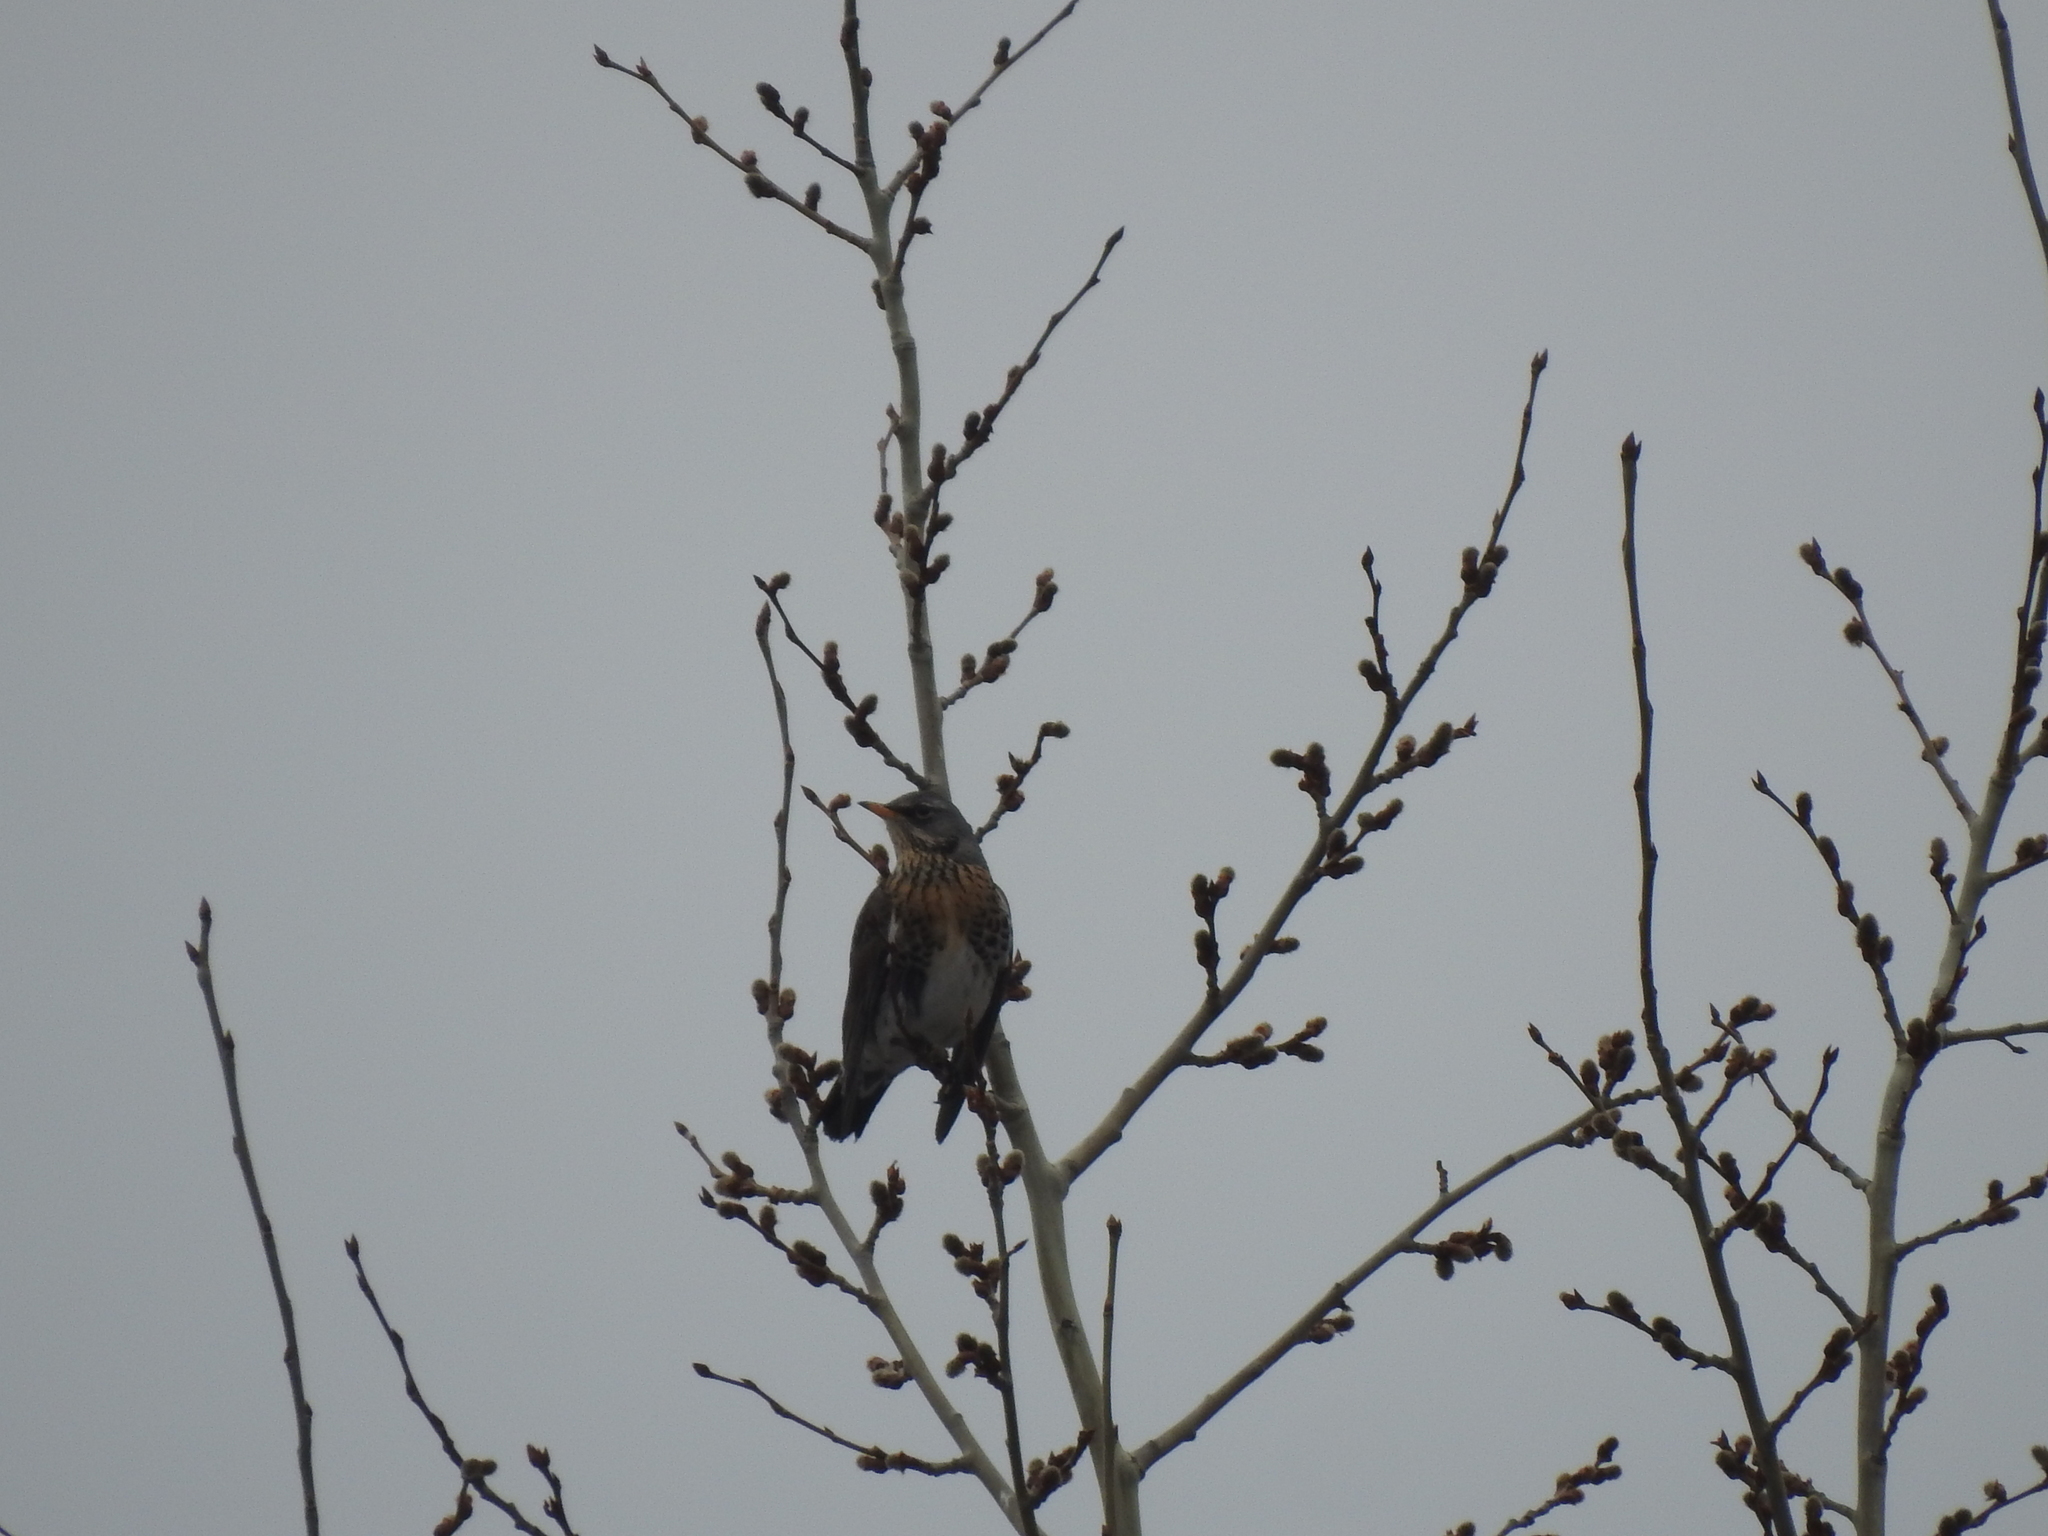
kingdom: Animalia
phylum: Chordata
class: Aves
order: Passeriformes
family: Turdidae
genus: Turdus
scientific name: Turdus pilaris
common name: Fieldfare
